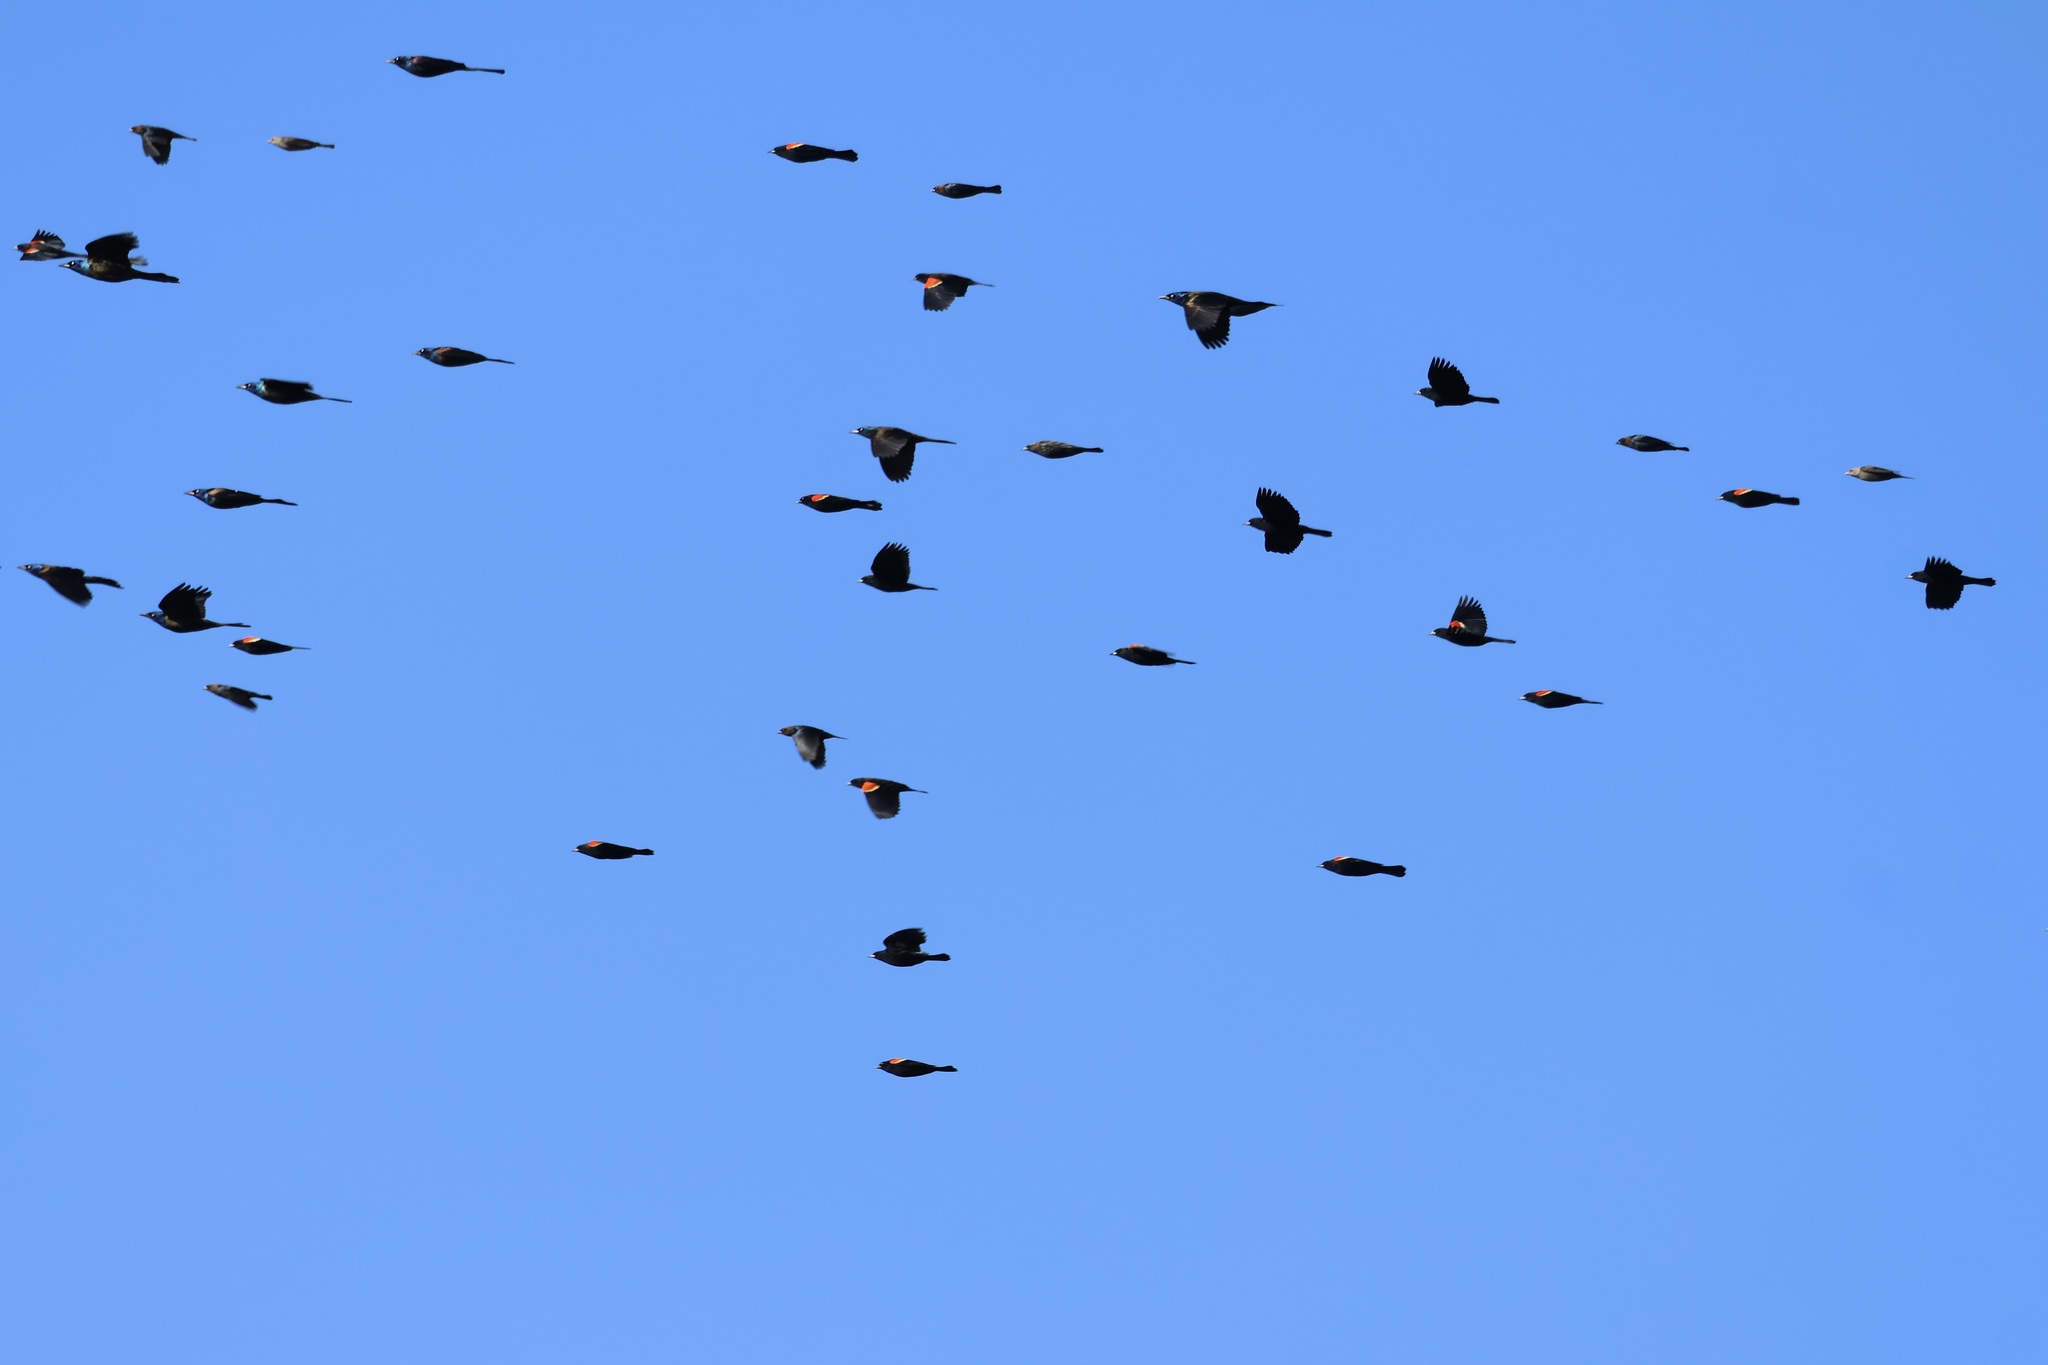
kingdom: Animalia
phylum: Chordata
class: Aves
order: Passeriformes
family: Icteridae
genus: Molothrus
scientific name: Molothrus ater
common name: Brown-headed cowbird
